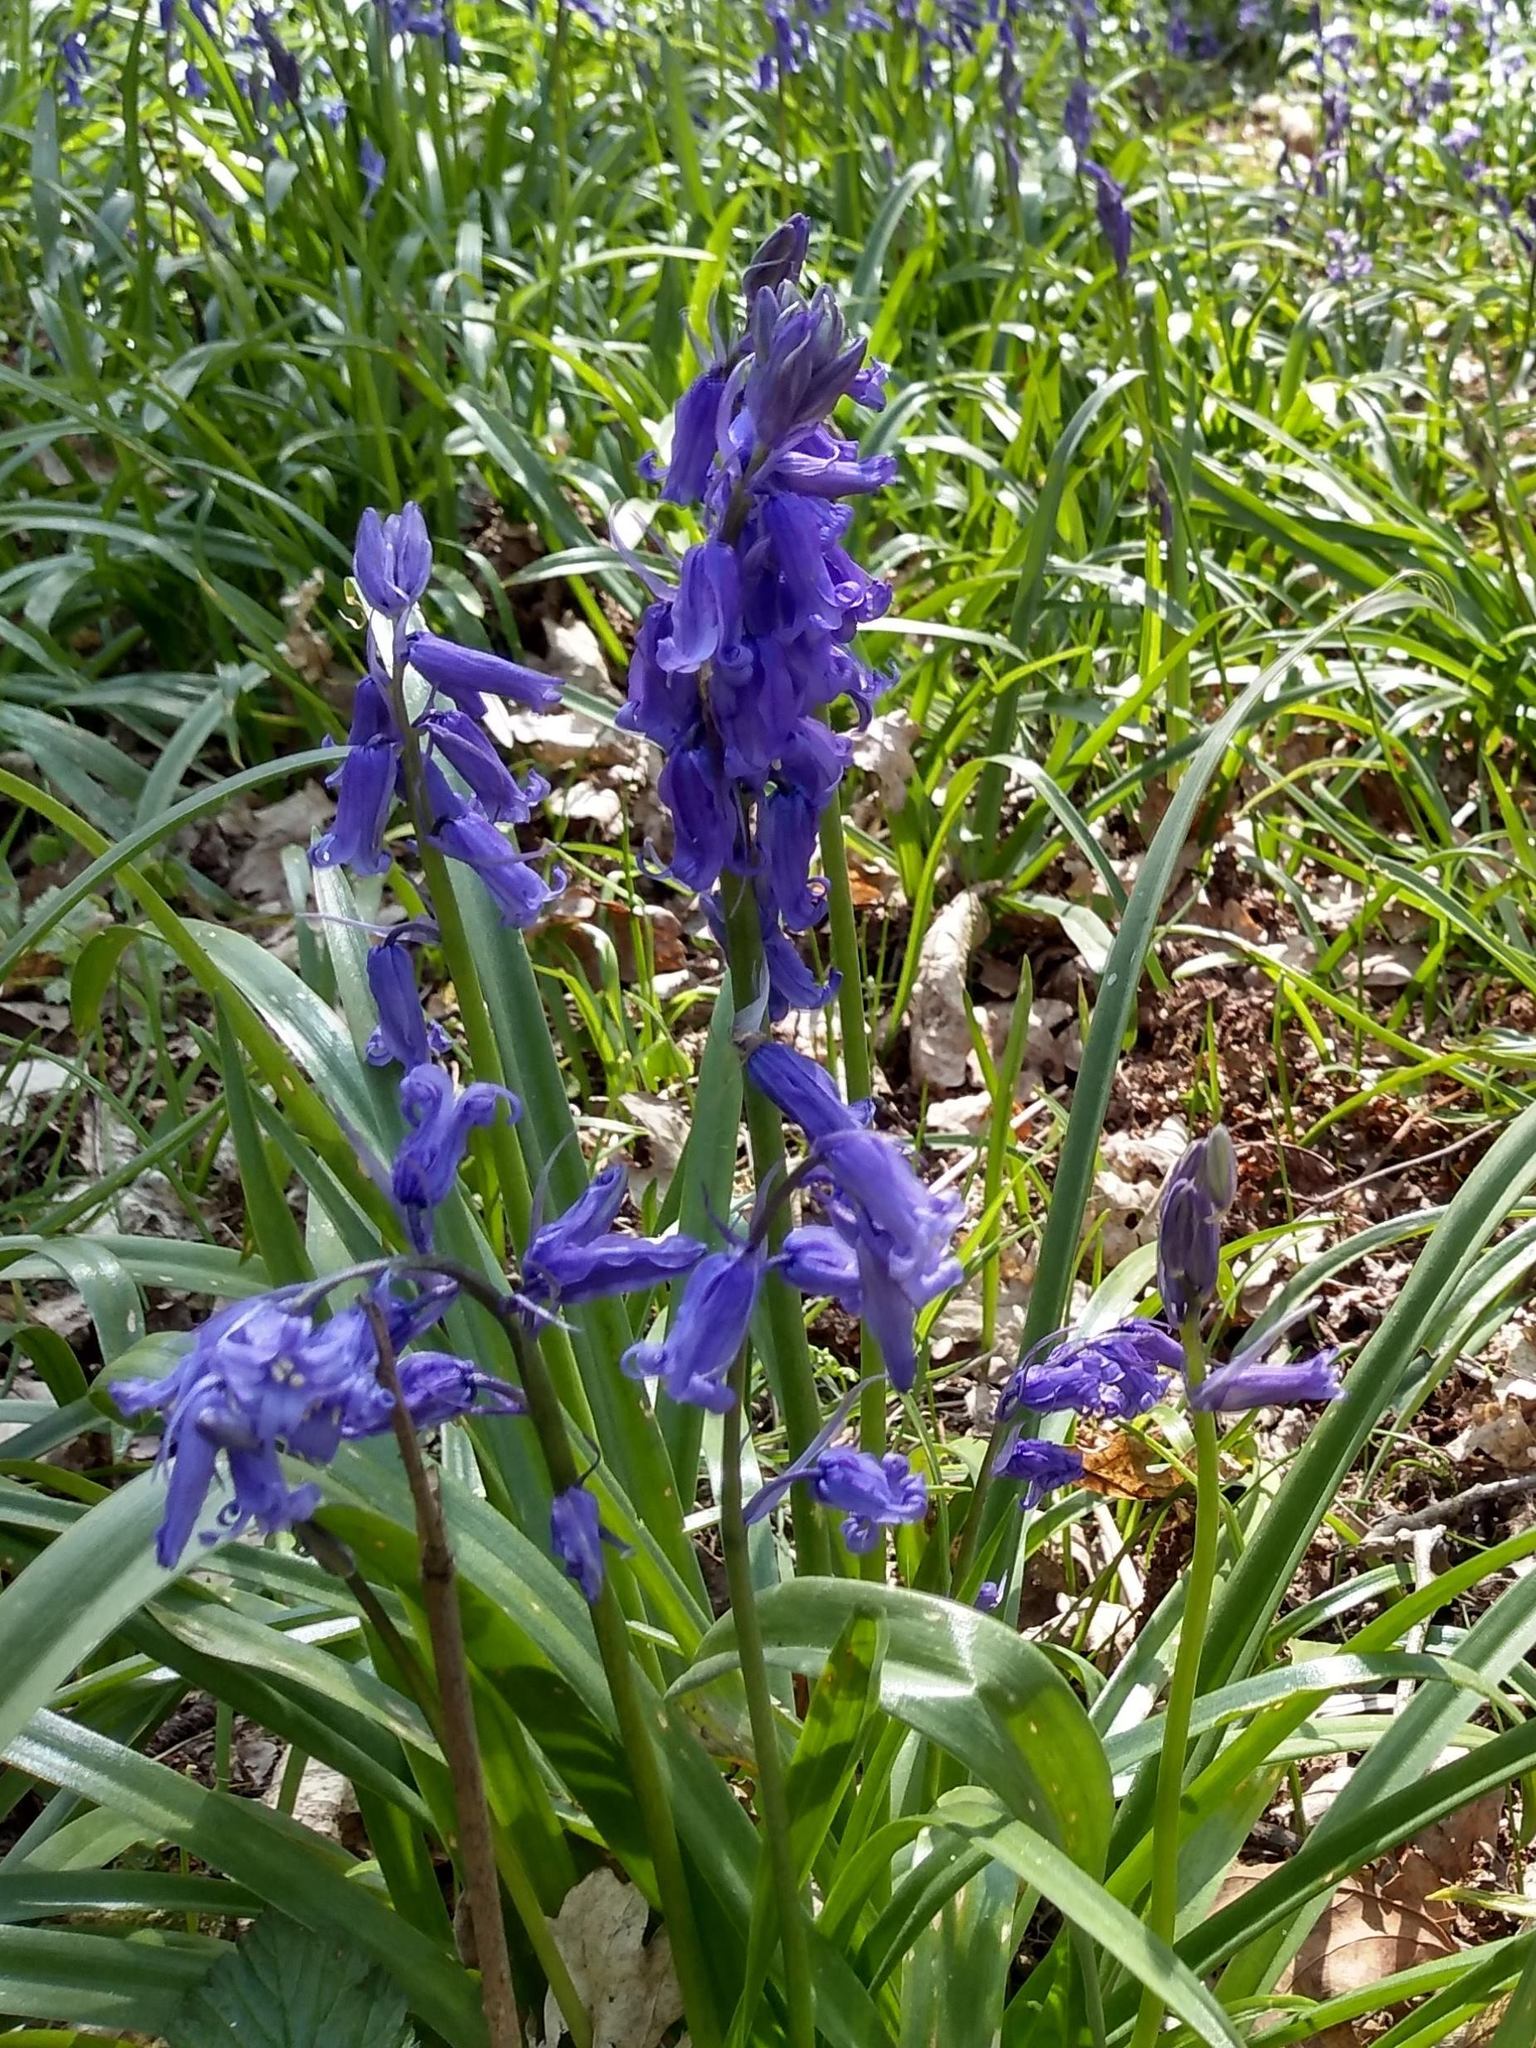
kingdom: Plantae
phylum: Tracheophyta
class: Liliopsida
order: Asparagales
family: Asparagaceae
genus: Hyacinthoides
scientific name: Hyacinthoides non-scripta
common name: Bluebell
